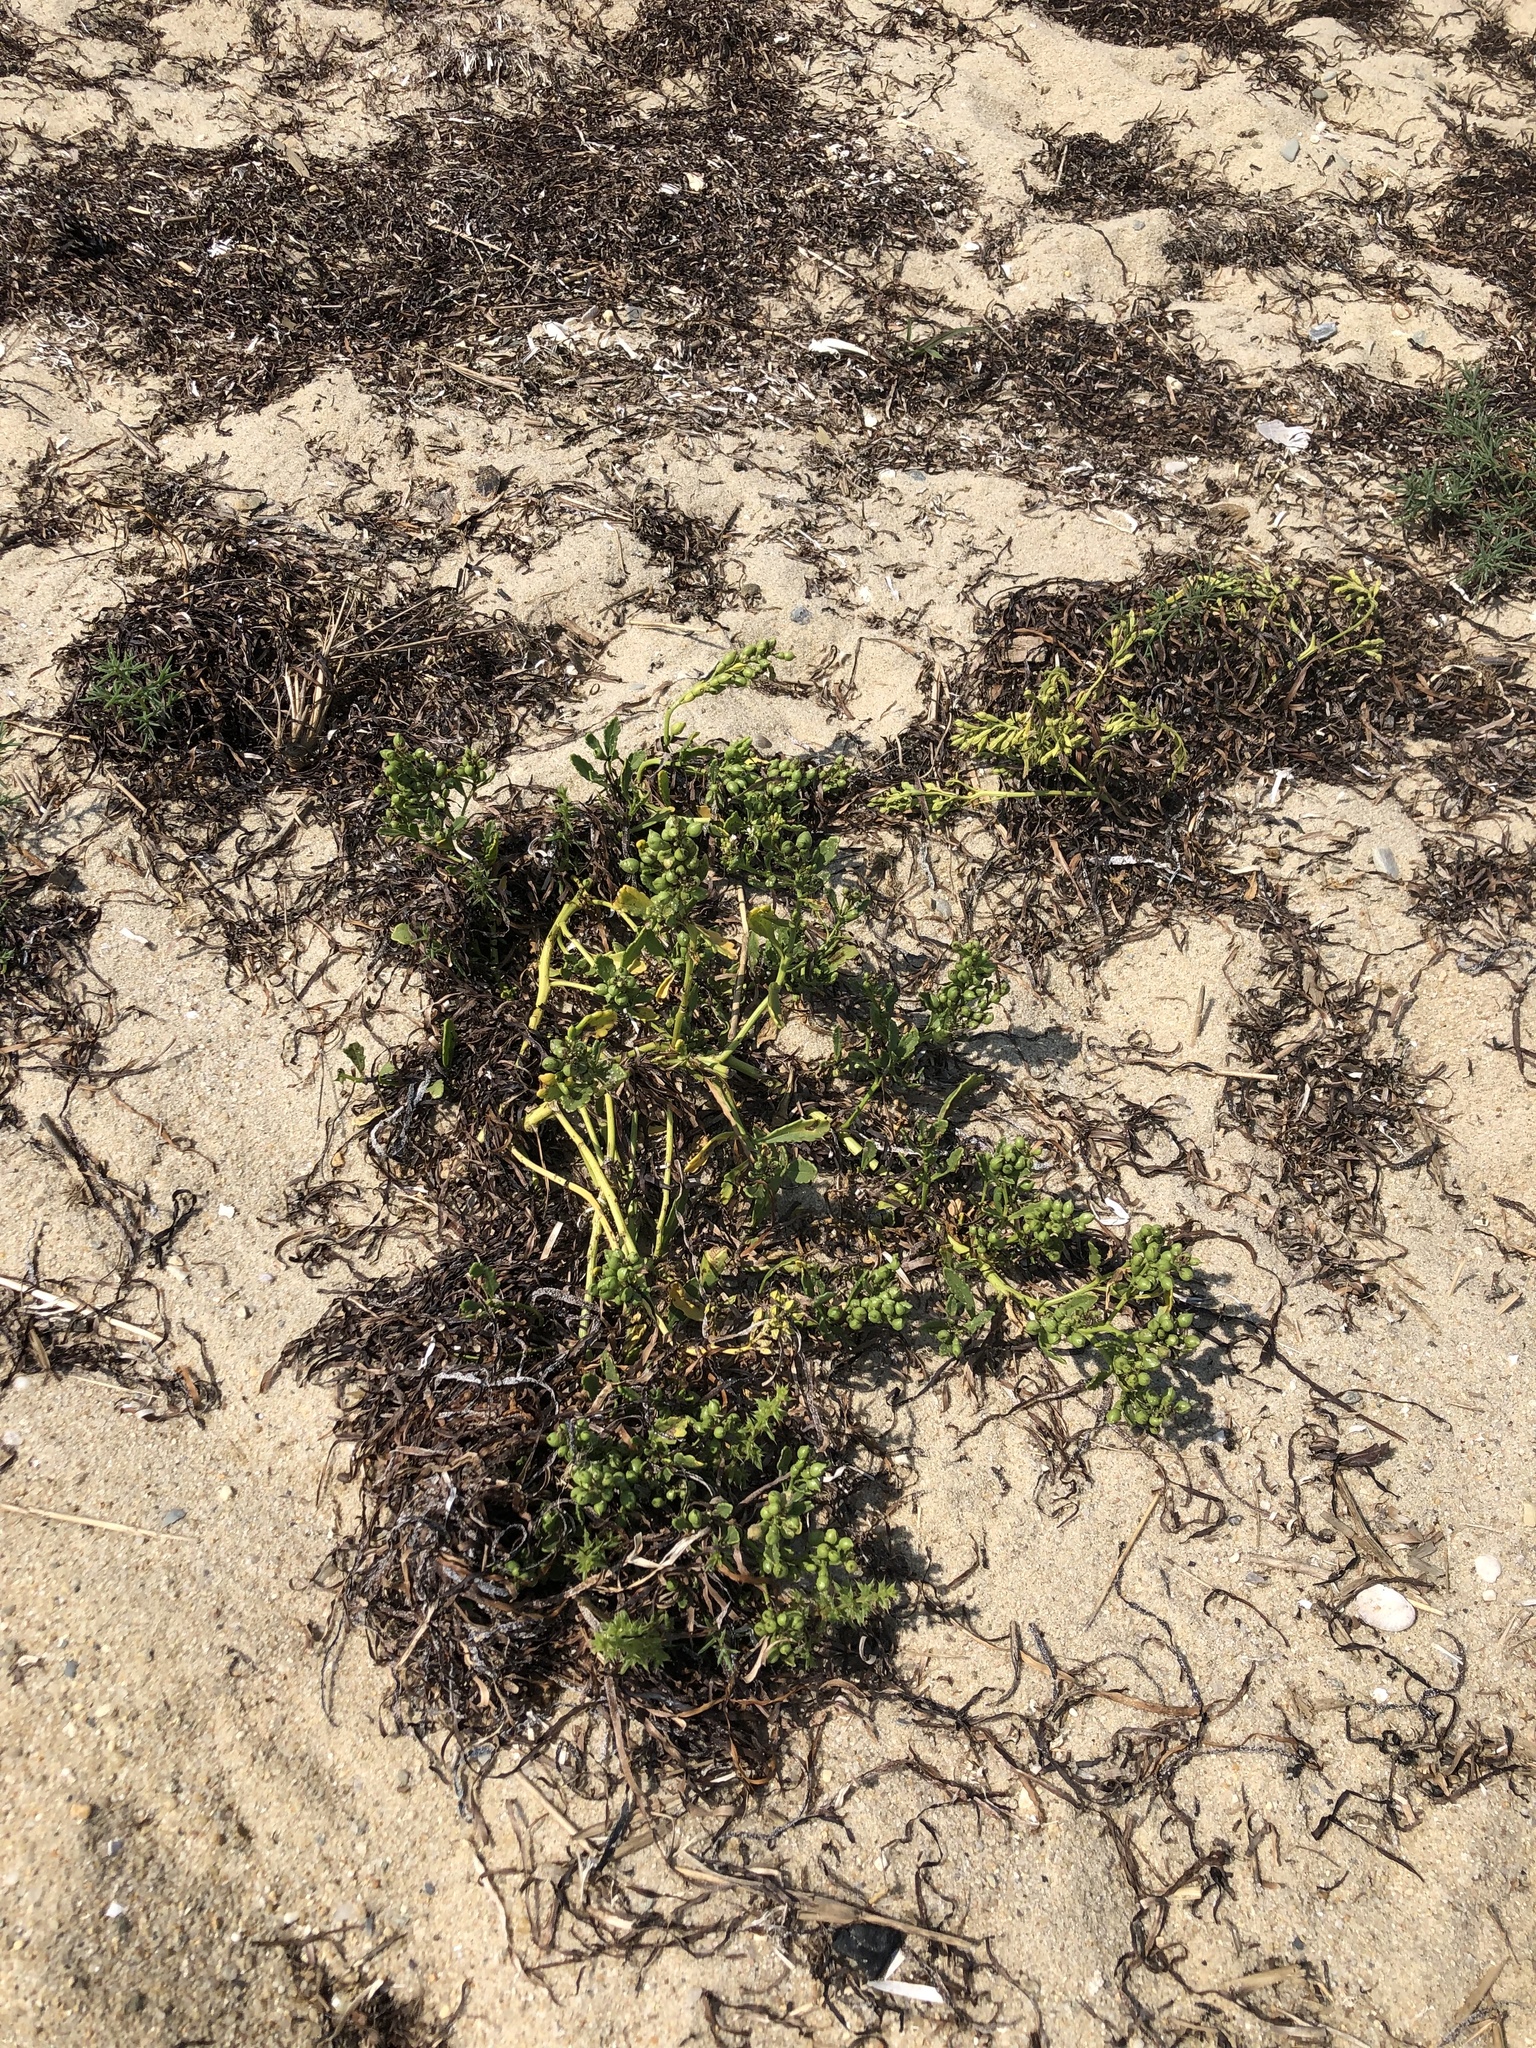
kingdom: Plantae
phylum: Tracheophyta
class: Magnoliopsida
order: Brassicales
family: Brassicaceae
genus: Cakile
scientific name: Cakile edentula
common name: American sea rocket
